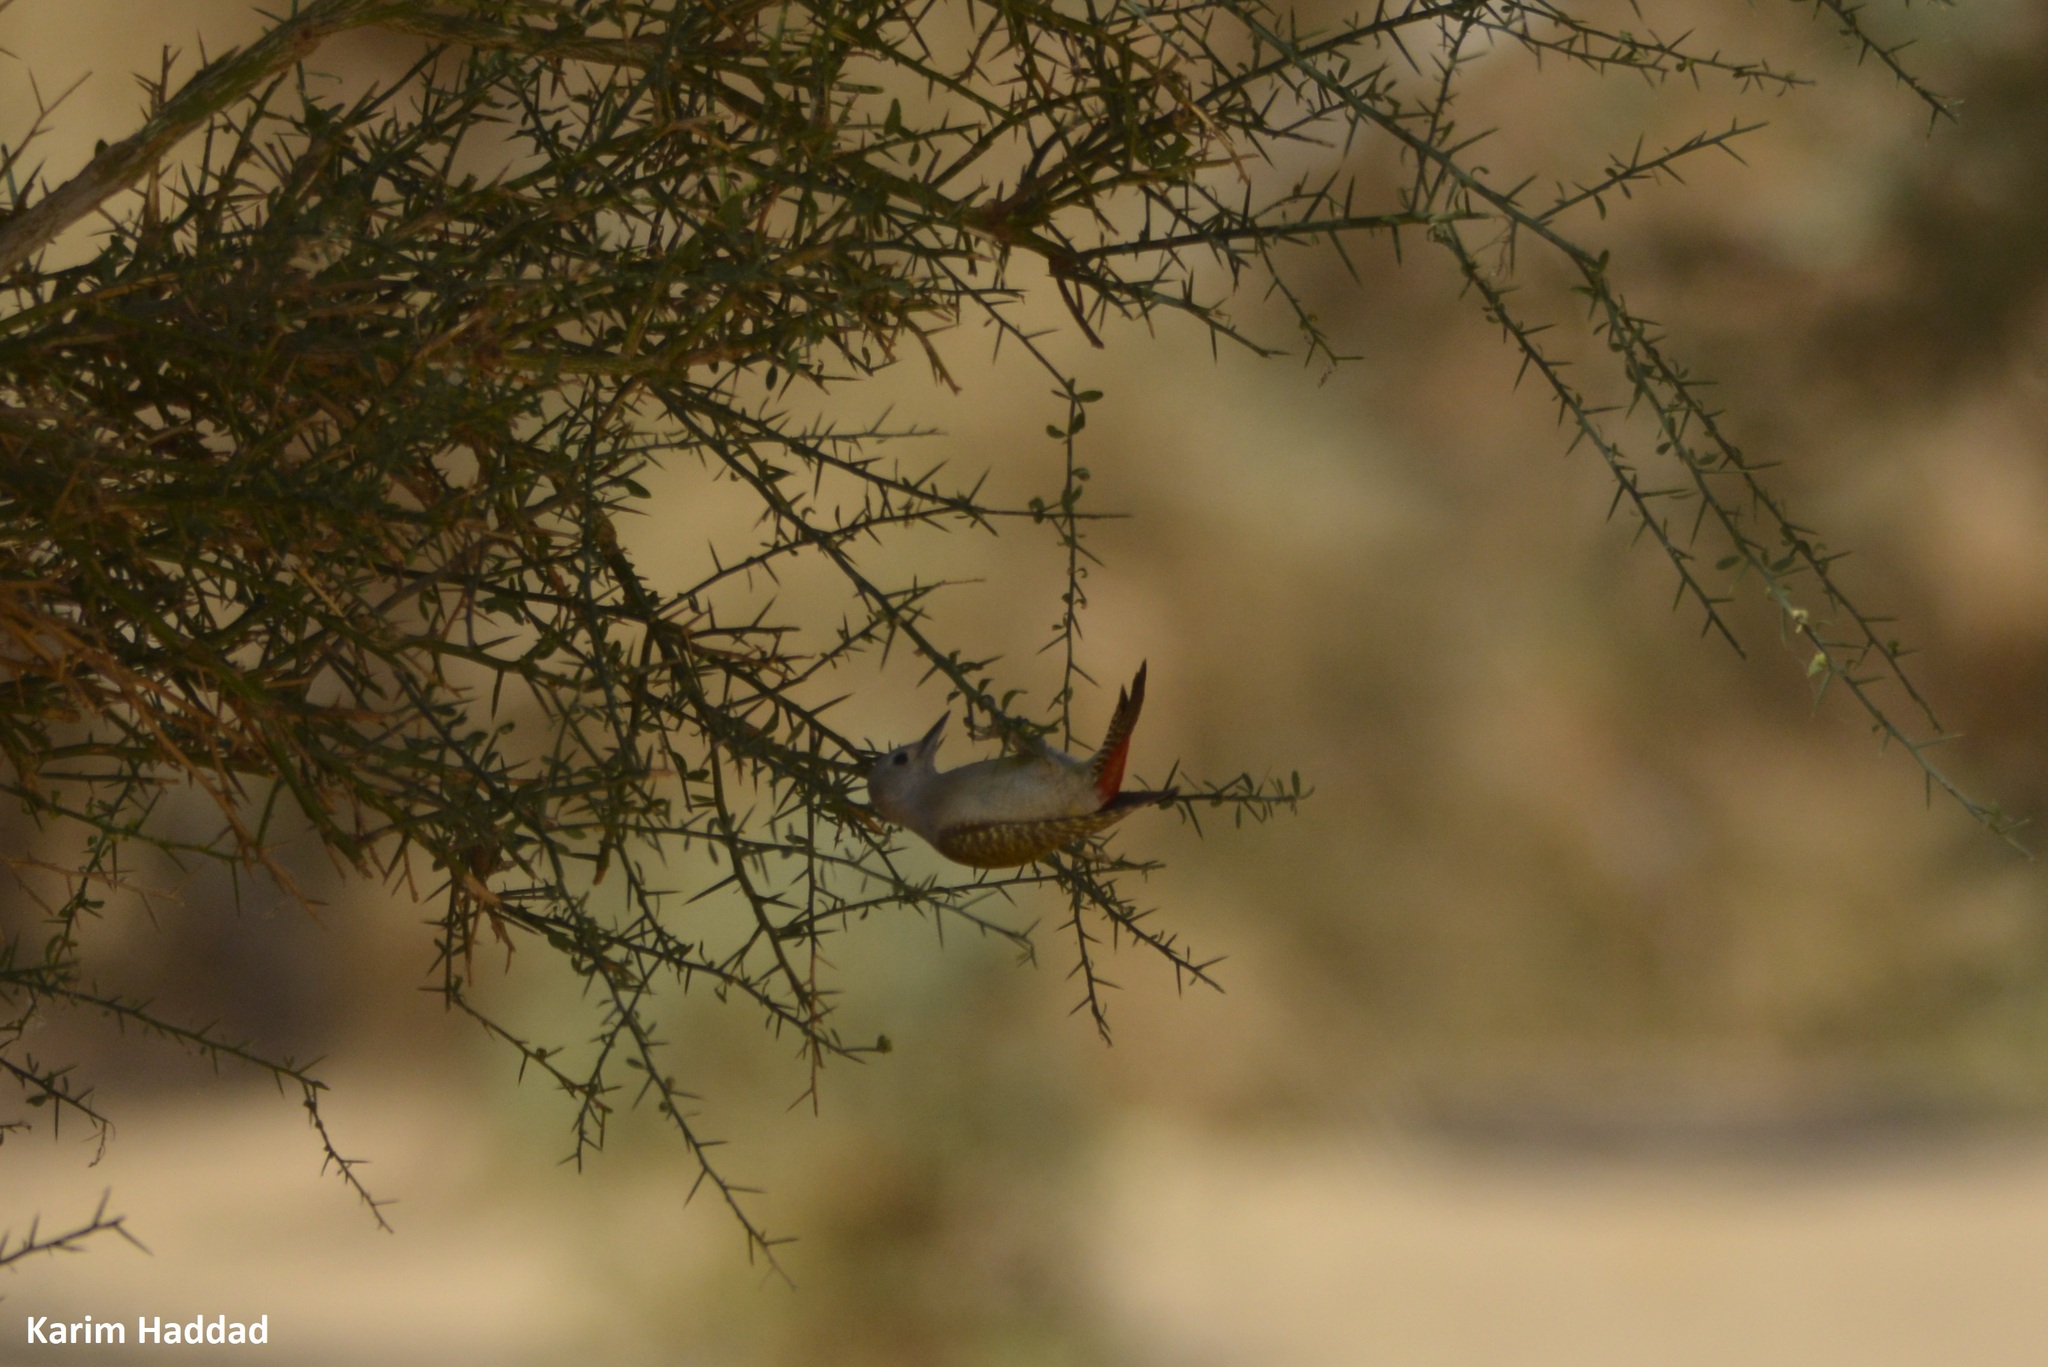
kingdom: Animalia
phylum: Chordata
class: Aves
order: Piciformes
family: Picidae
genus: Dendropicos
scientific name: Dendropicos goertae
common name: African grey woodpecker
